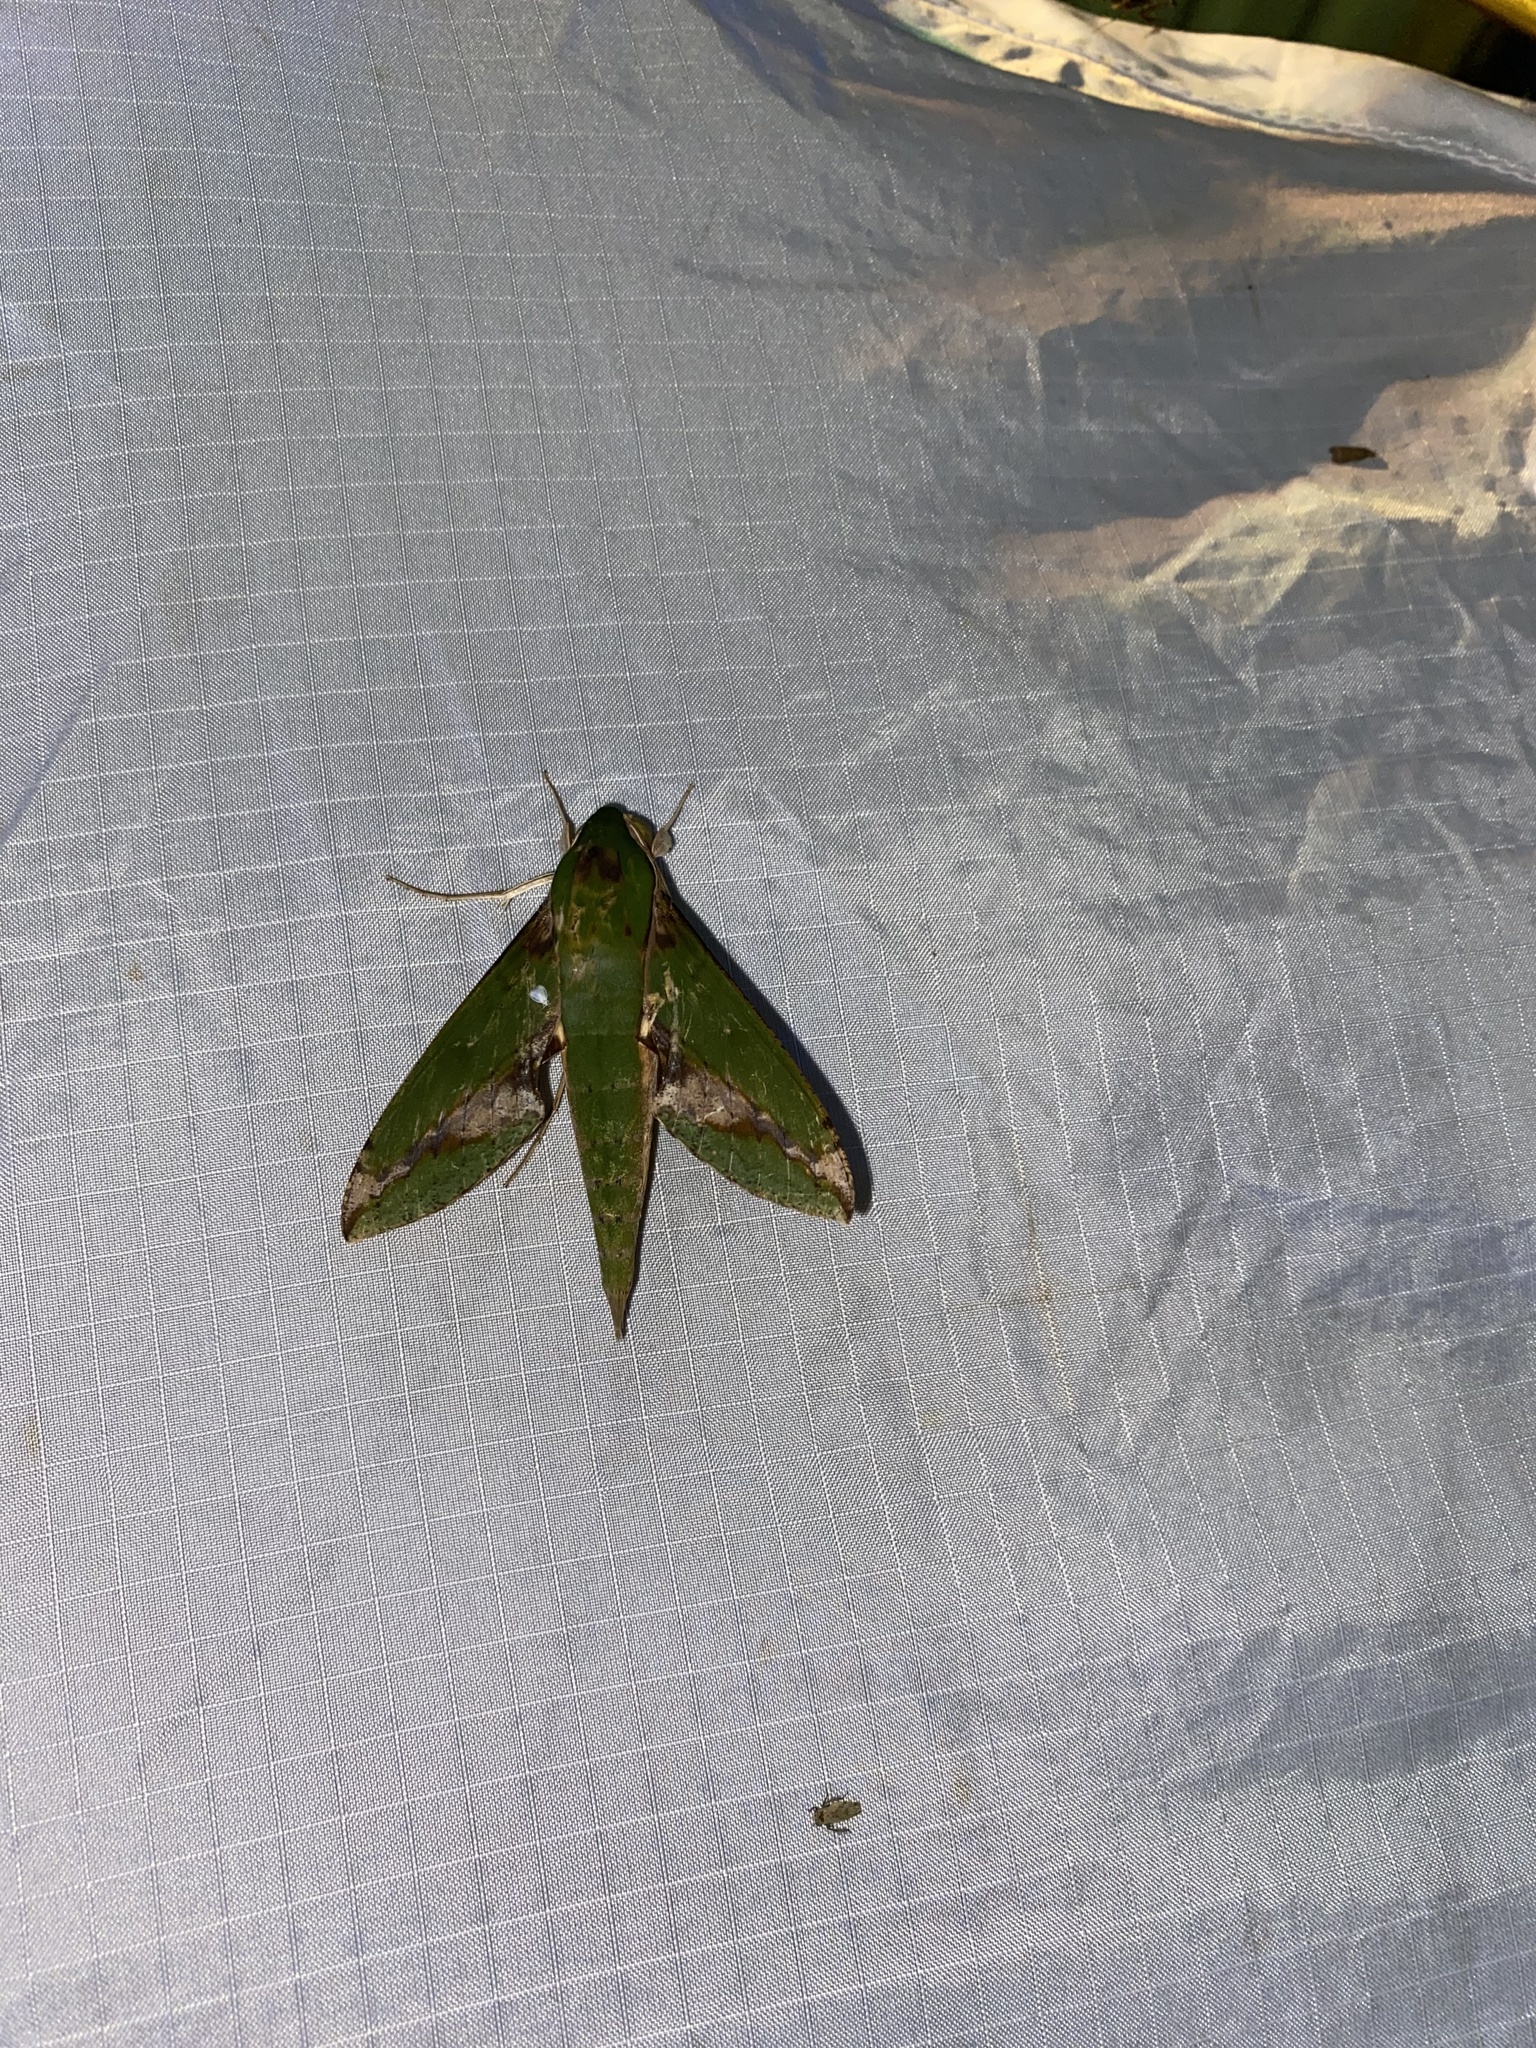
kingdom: Animalia
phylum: Arthropoda
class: Insecta
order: Lepidoptera
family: Sphingidae
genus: Xylophanes
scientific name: Xylophanes chiron
